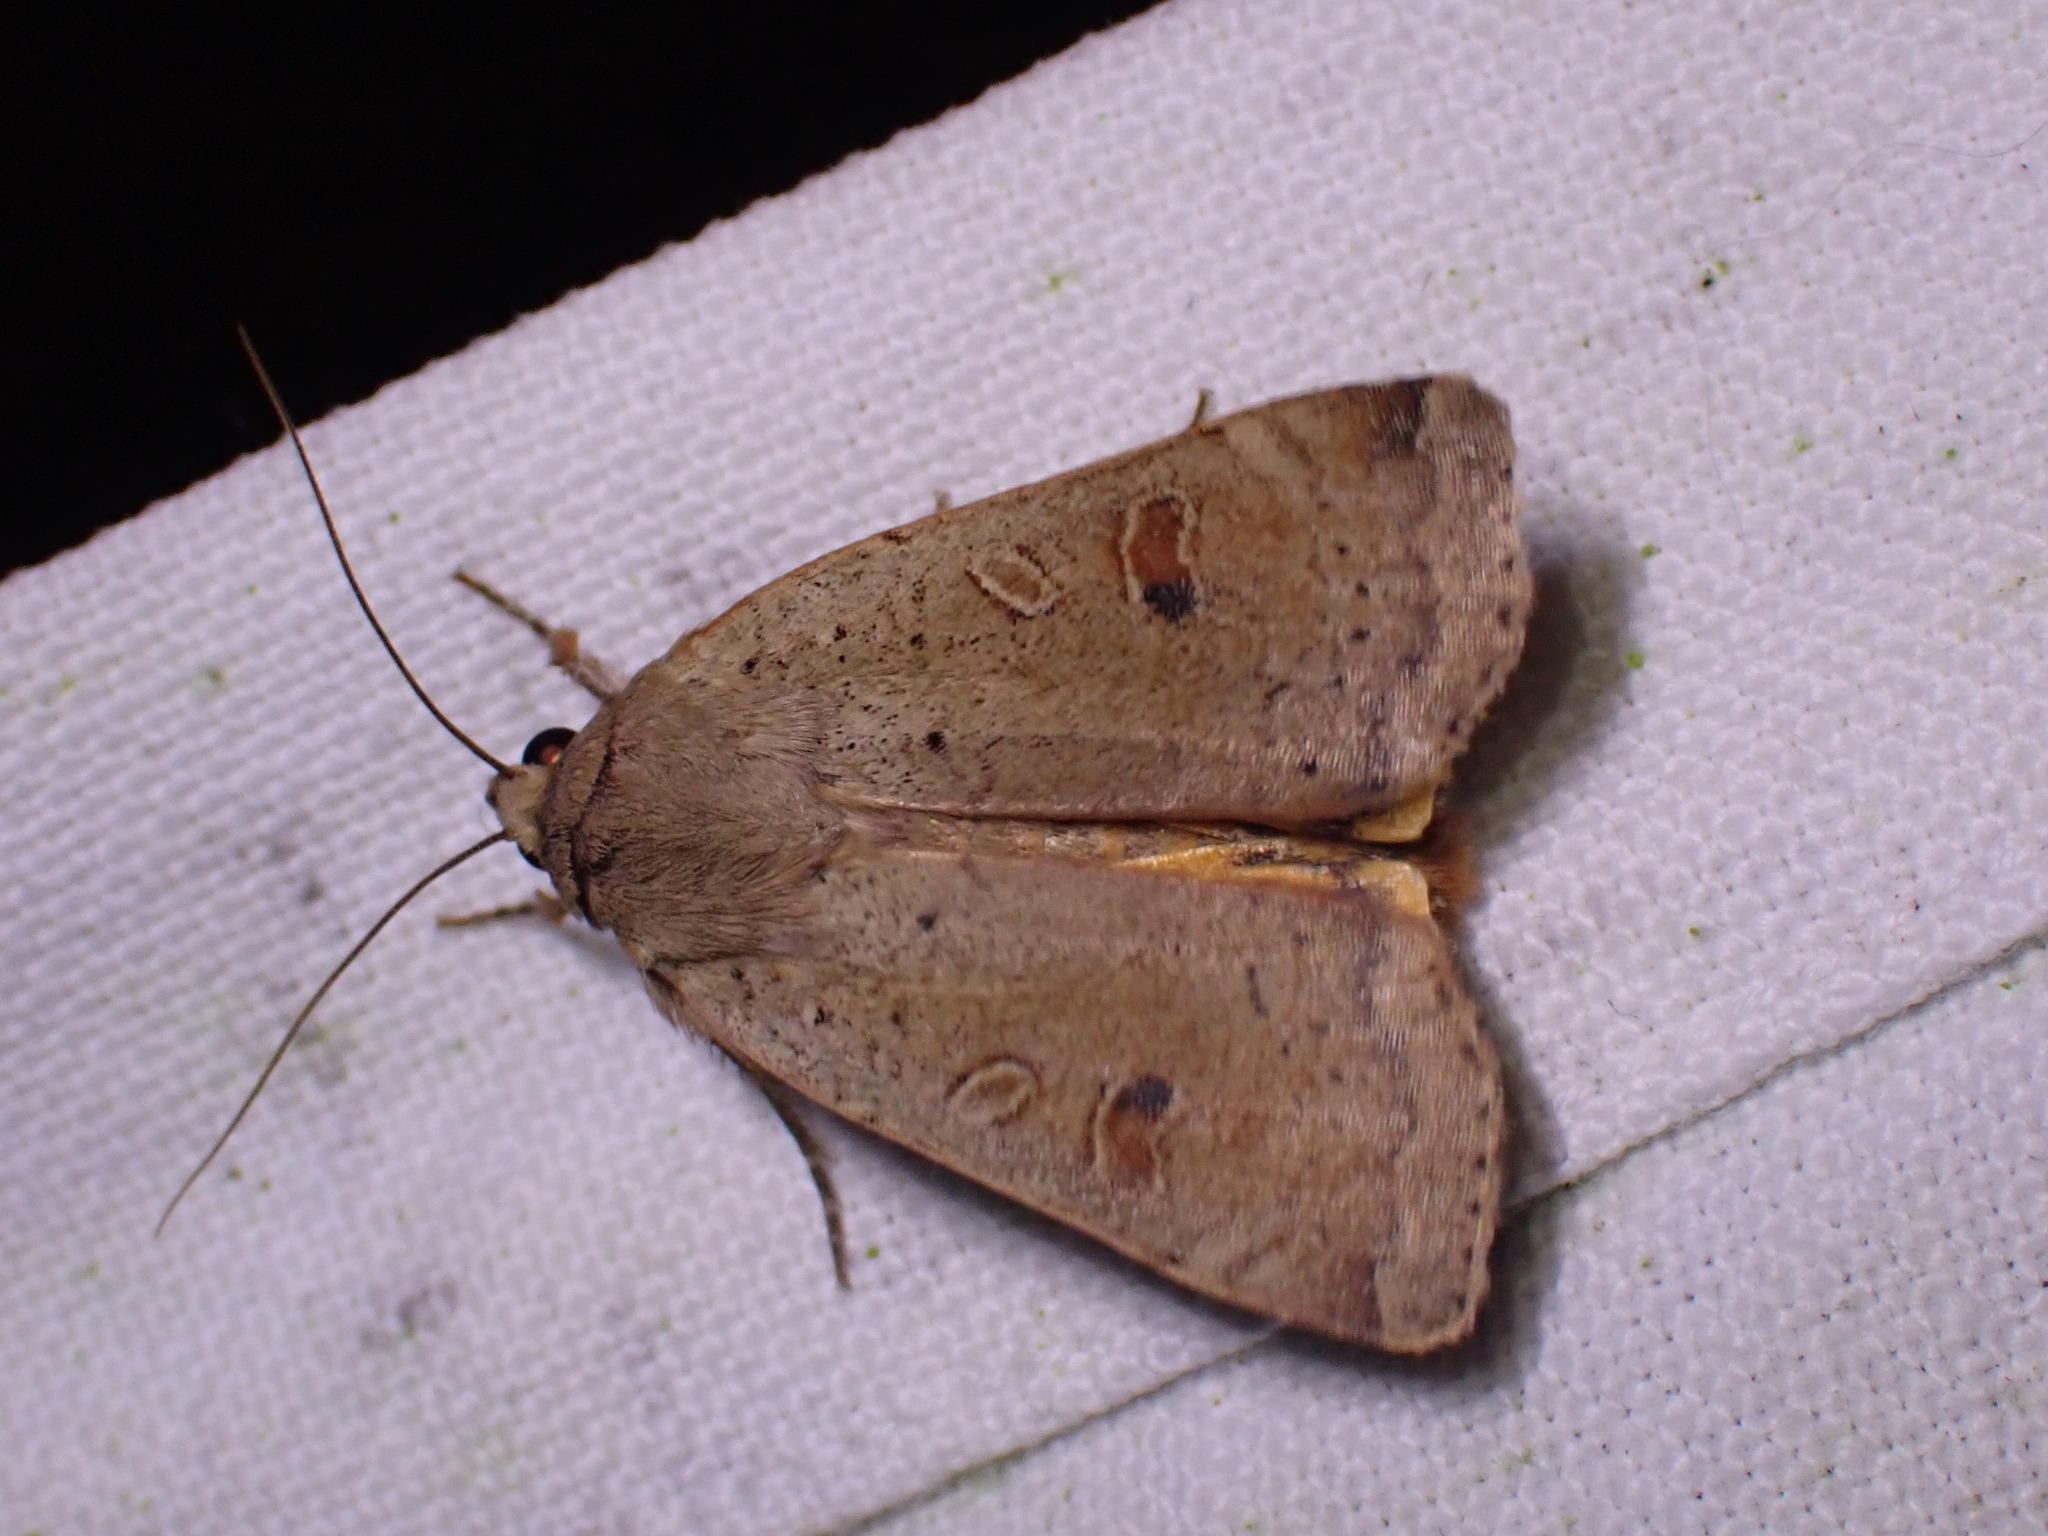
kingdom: Animalia
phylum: Arthropoda
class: Insecta
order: Lepidoptera
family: Noctuidae
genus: Noctua
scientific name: Noctua comes
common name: Lesser yellow underwing
